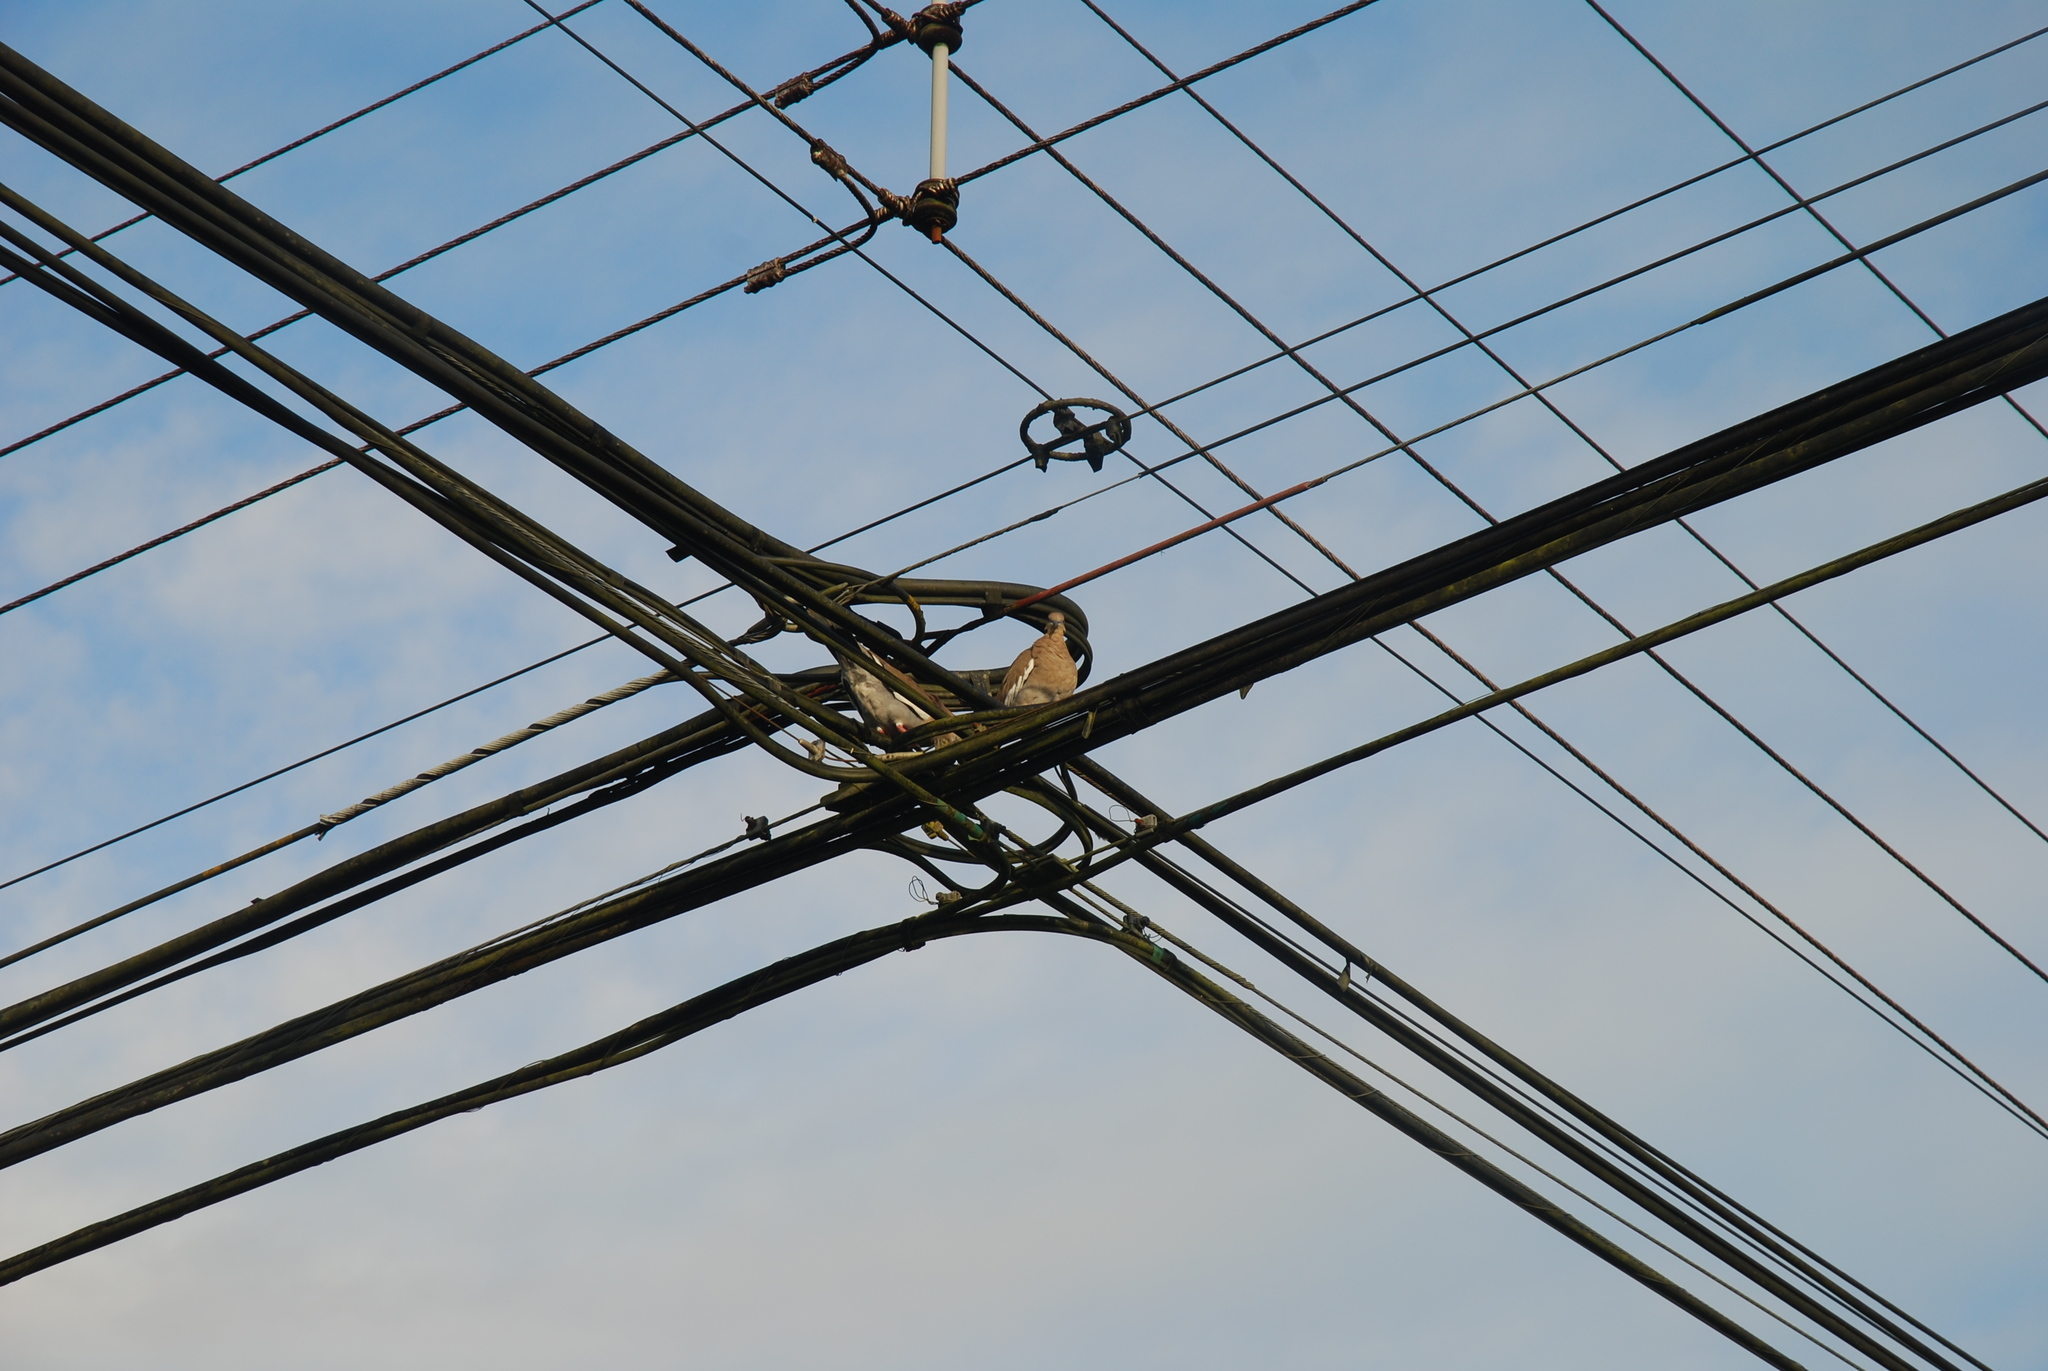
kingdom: Animalia
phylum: Chordata
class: Aves
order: Columbiformes
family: Columbidae
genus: Zenaida
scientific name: Zenaida asiatica
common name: White-winged dove
